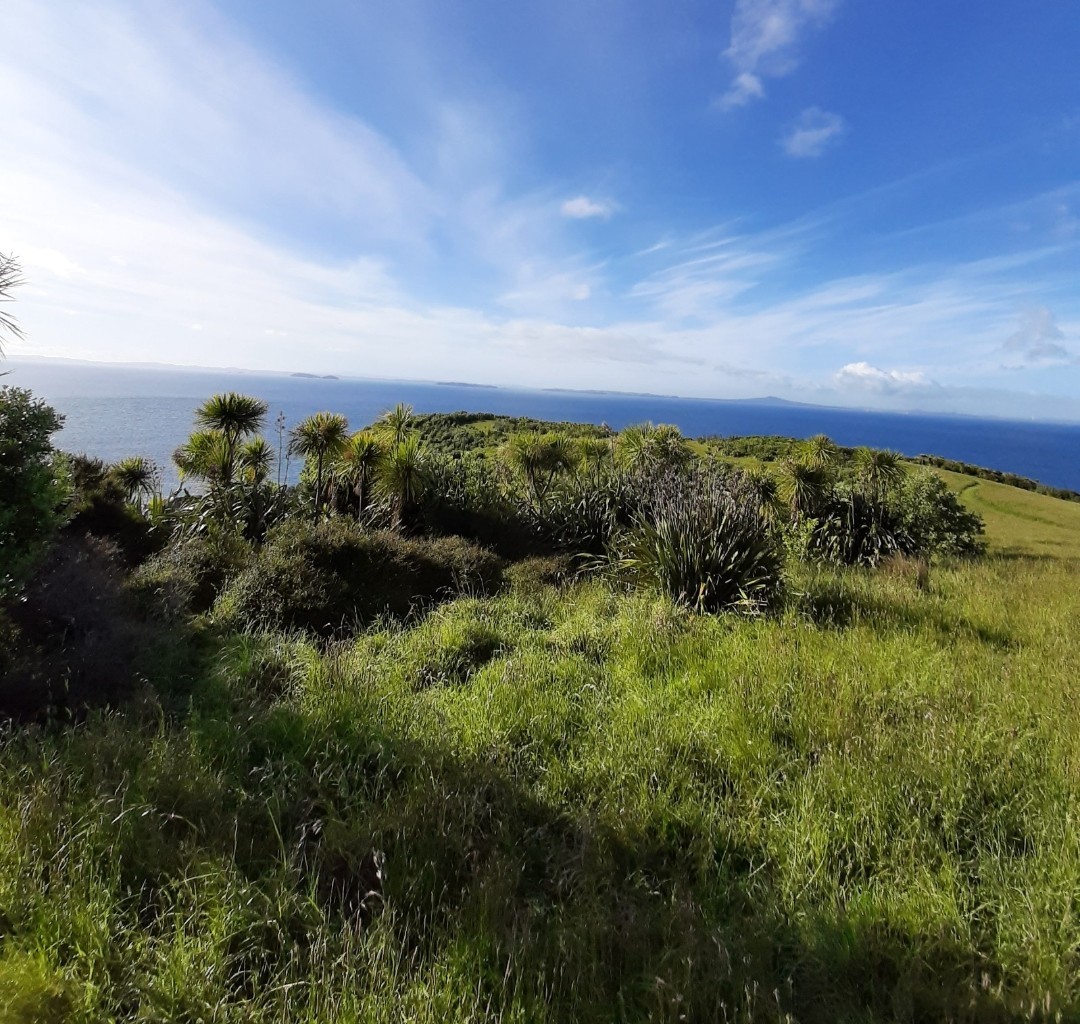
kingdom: Plantae
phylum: Tracheophyta
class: Liliopsida
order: Asparagales
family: Asparagaceae
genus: Cordyline
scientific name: Cordyline australis
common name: Cabbage-palm
